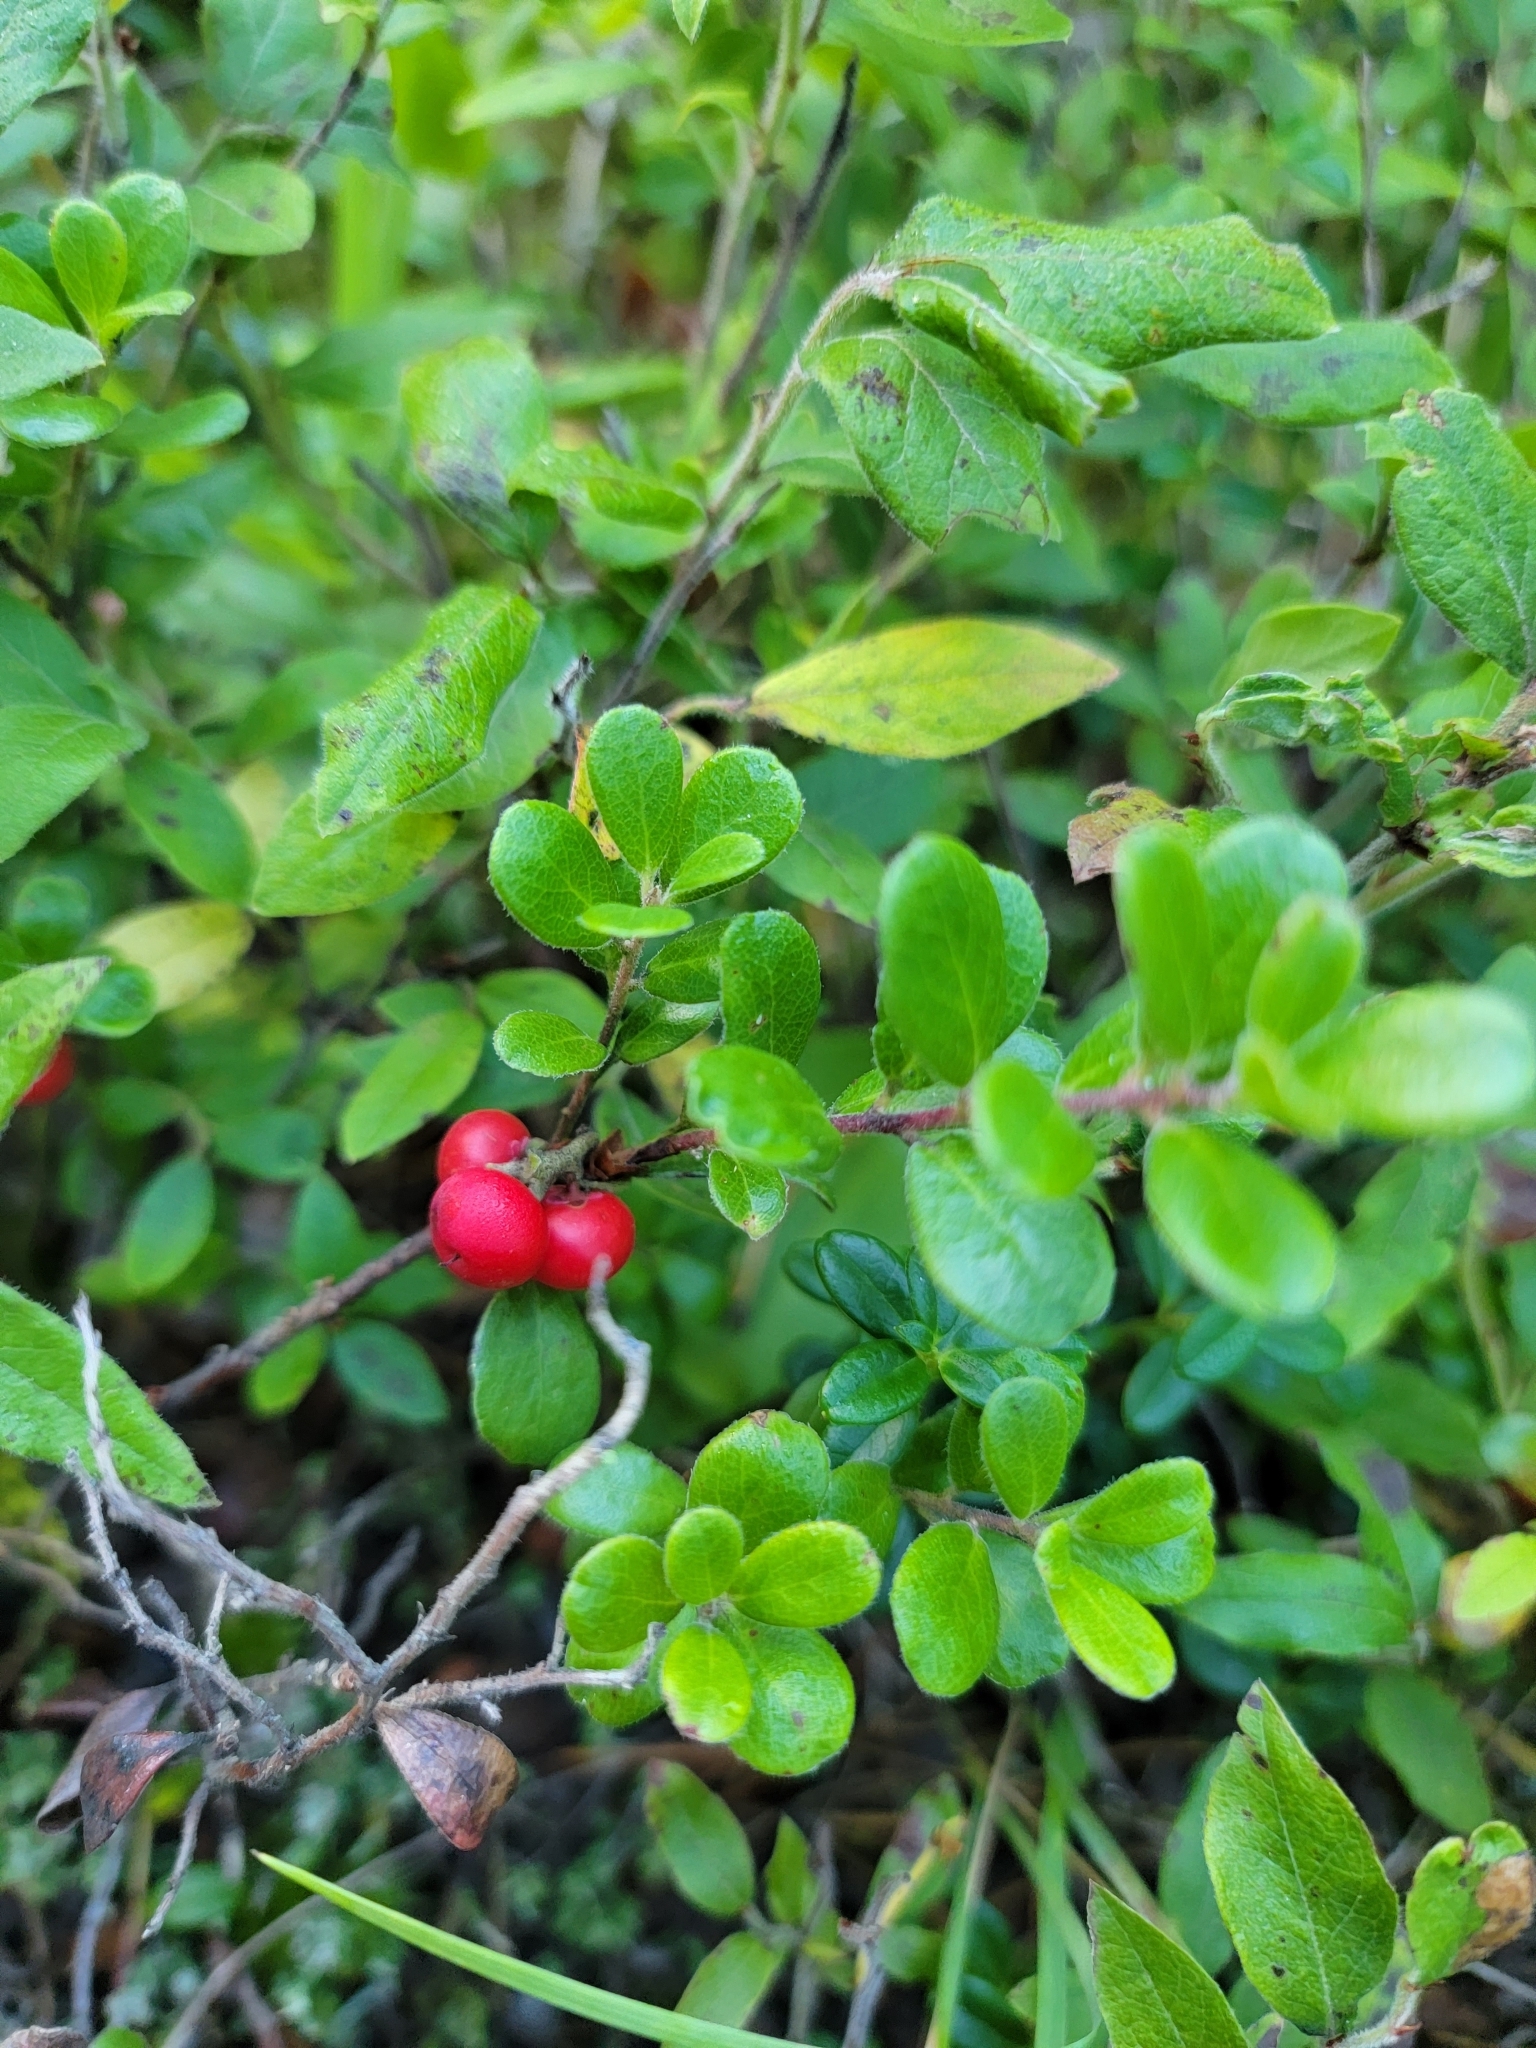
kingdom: Plantae
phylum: Tracheophyta
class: Magnoliopsida
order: Ericales
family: Ericaceae
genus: Arctostaphylos
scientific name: Arctostaphylos uva-ursi
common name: Bearberry
